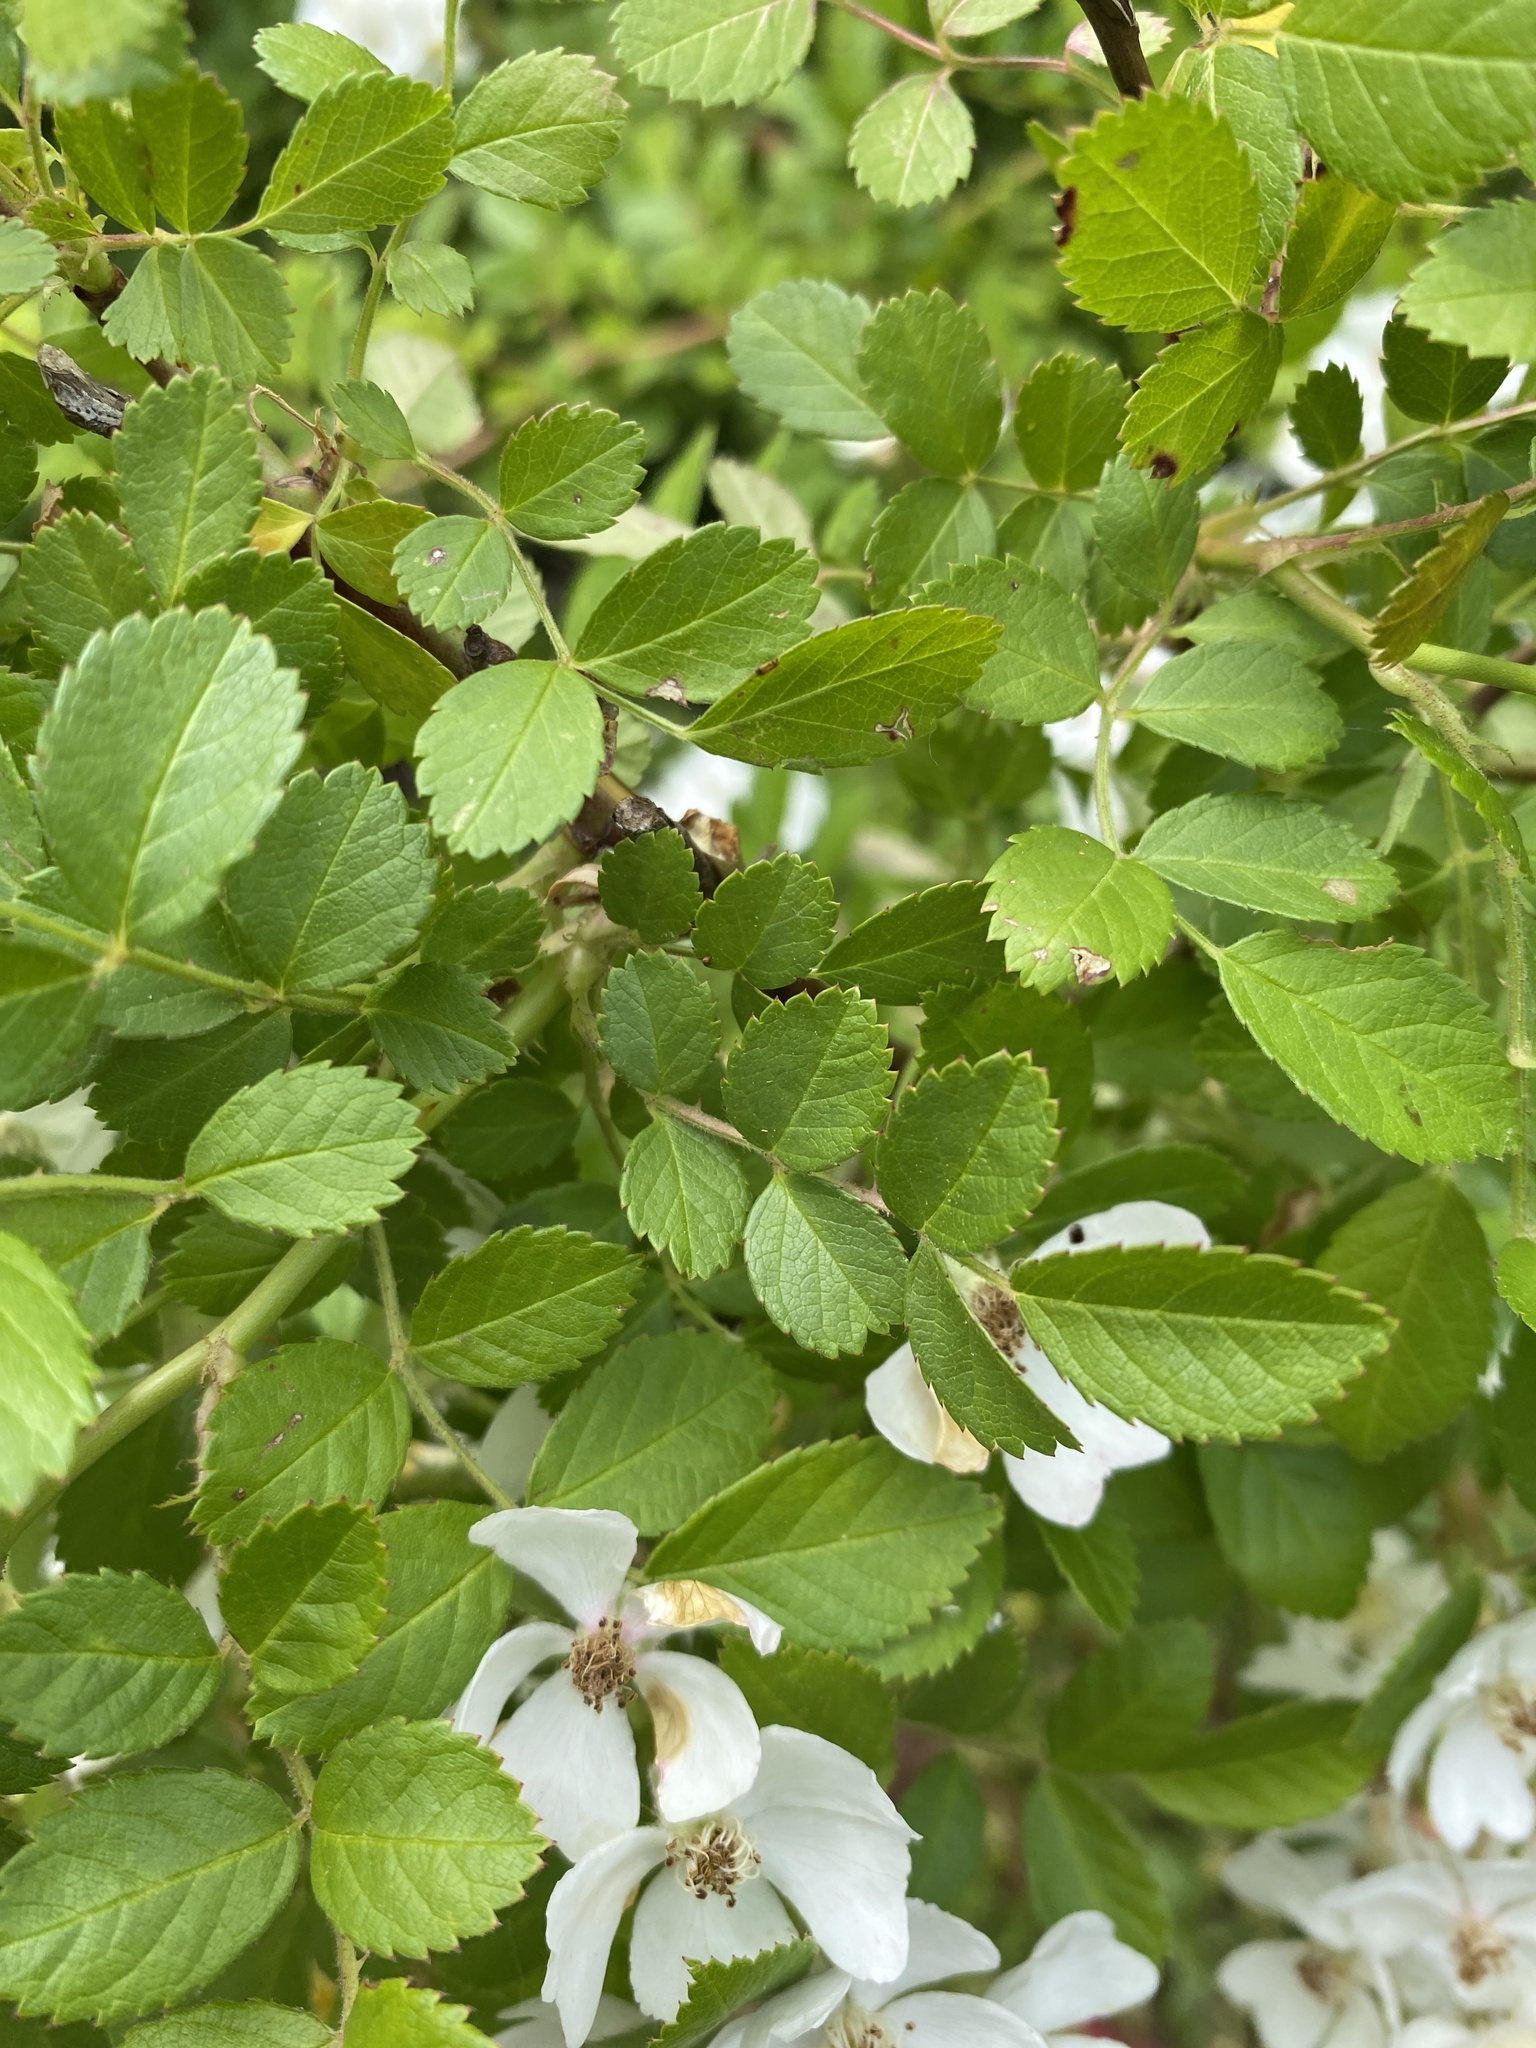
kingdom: Plantae
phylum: Tracheophyta
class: Magnoliopsida
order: Rosales
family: Rosaceae
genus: Rosa
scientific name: Rosa multiflora
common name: Multiflora rose
